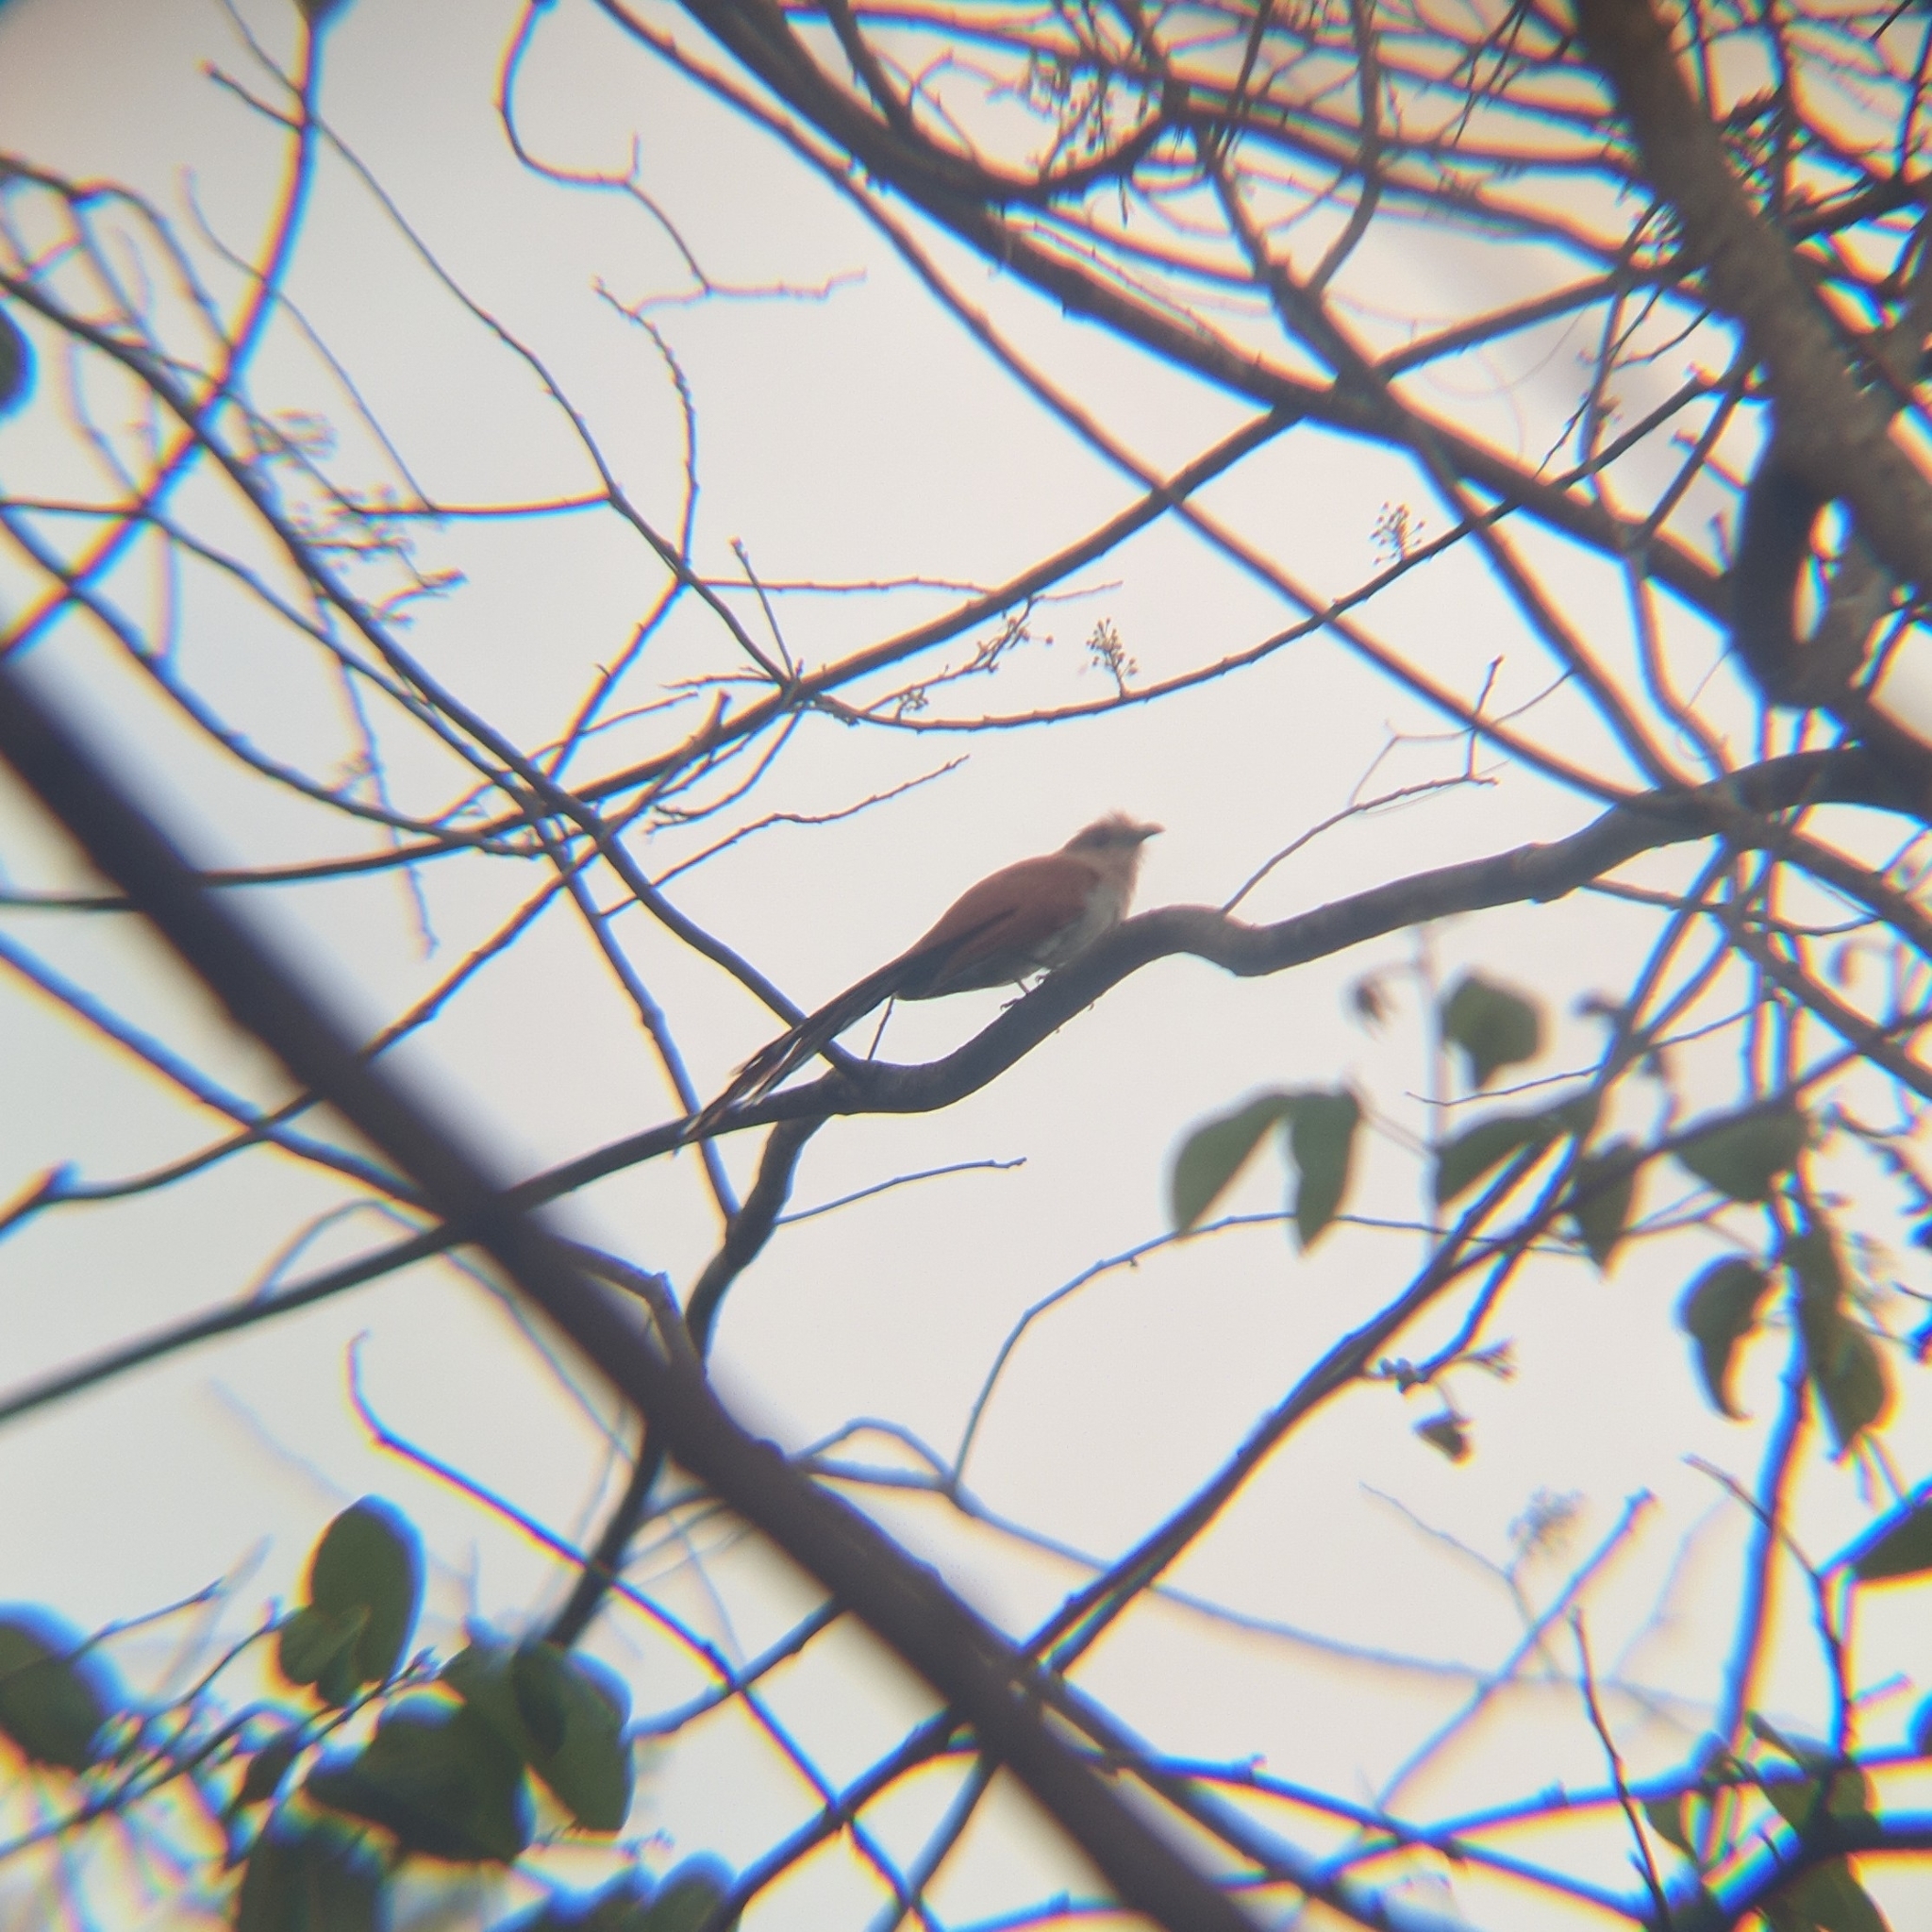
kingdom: Animalia
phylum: Chordata
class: Aves
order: Cuculiformes
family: Cuculidae
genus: Piaya
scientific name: Piaya cayana
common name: Squirrel cuckoo
